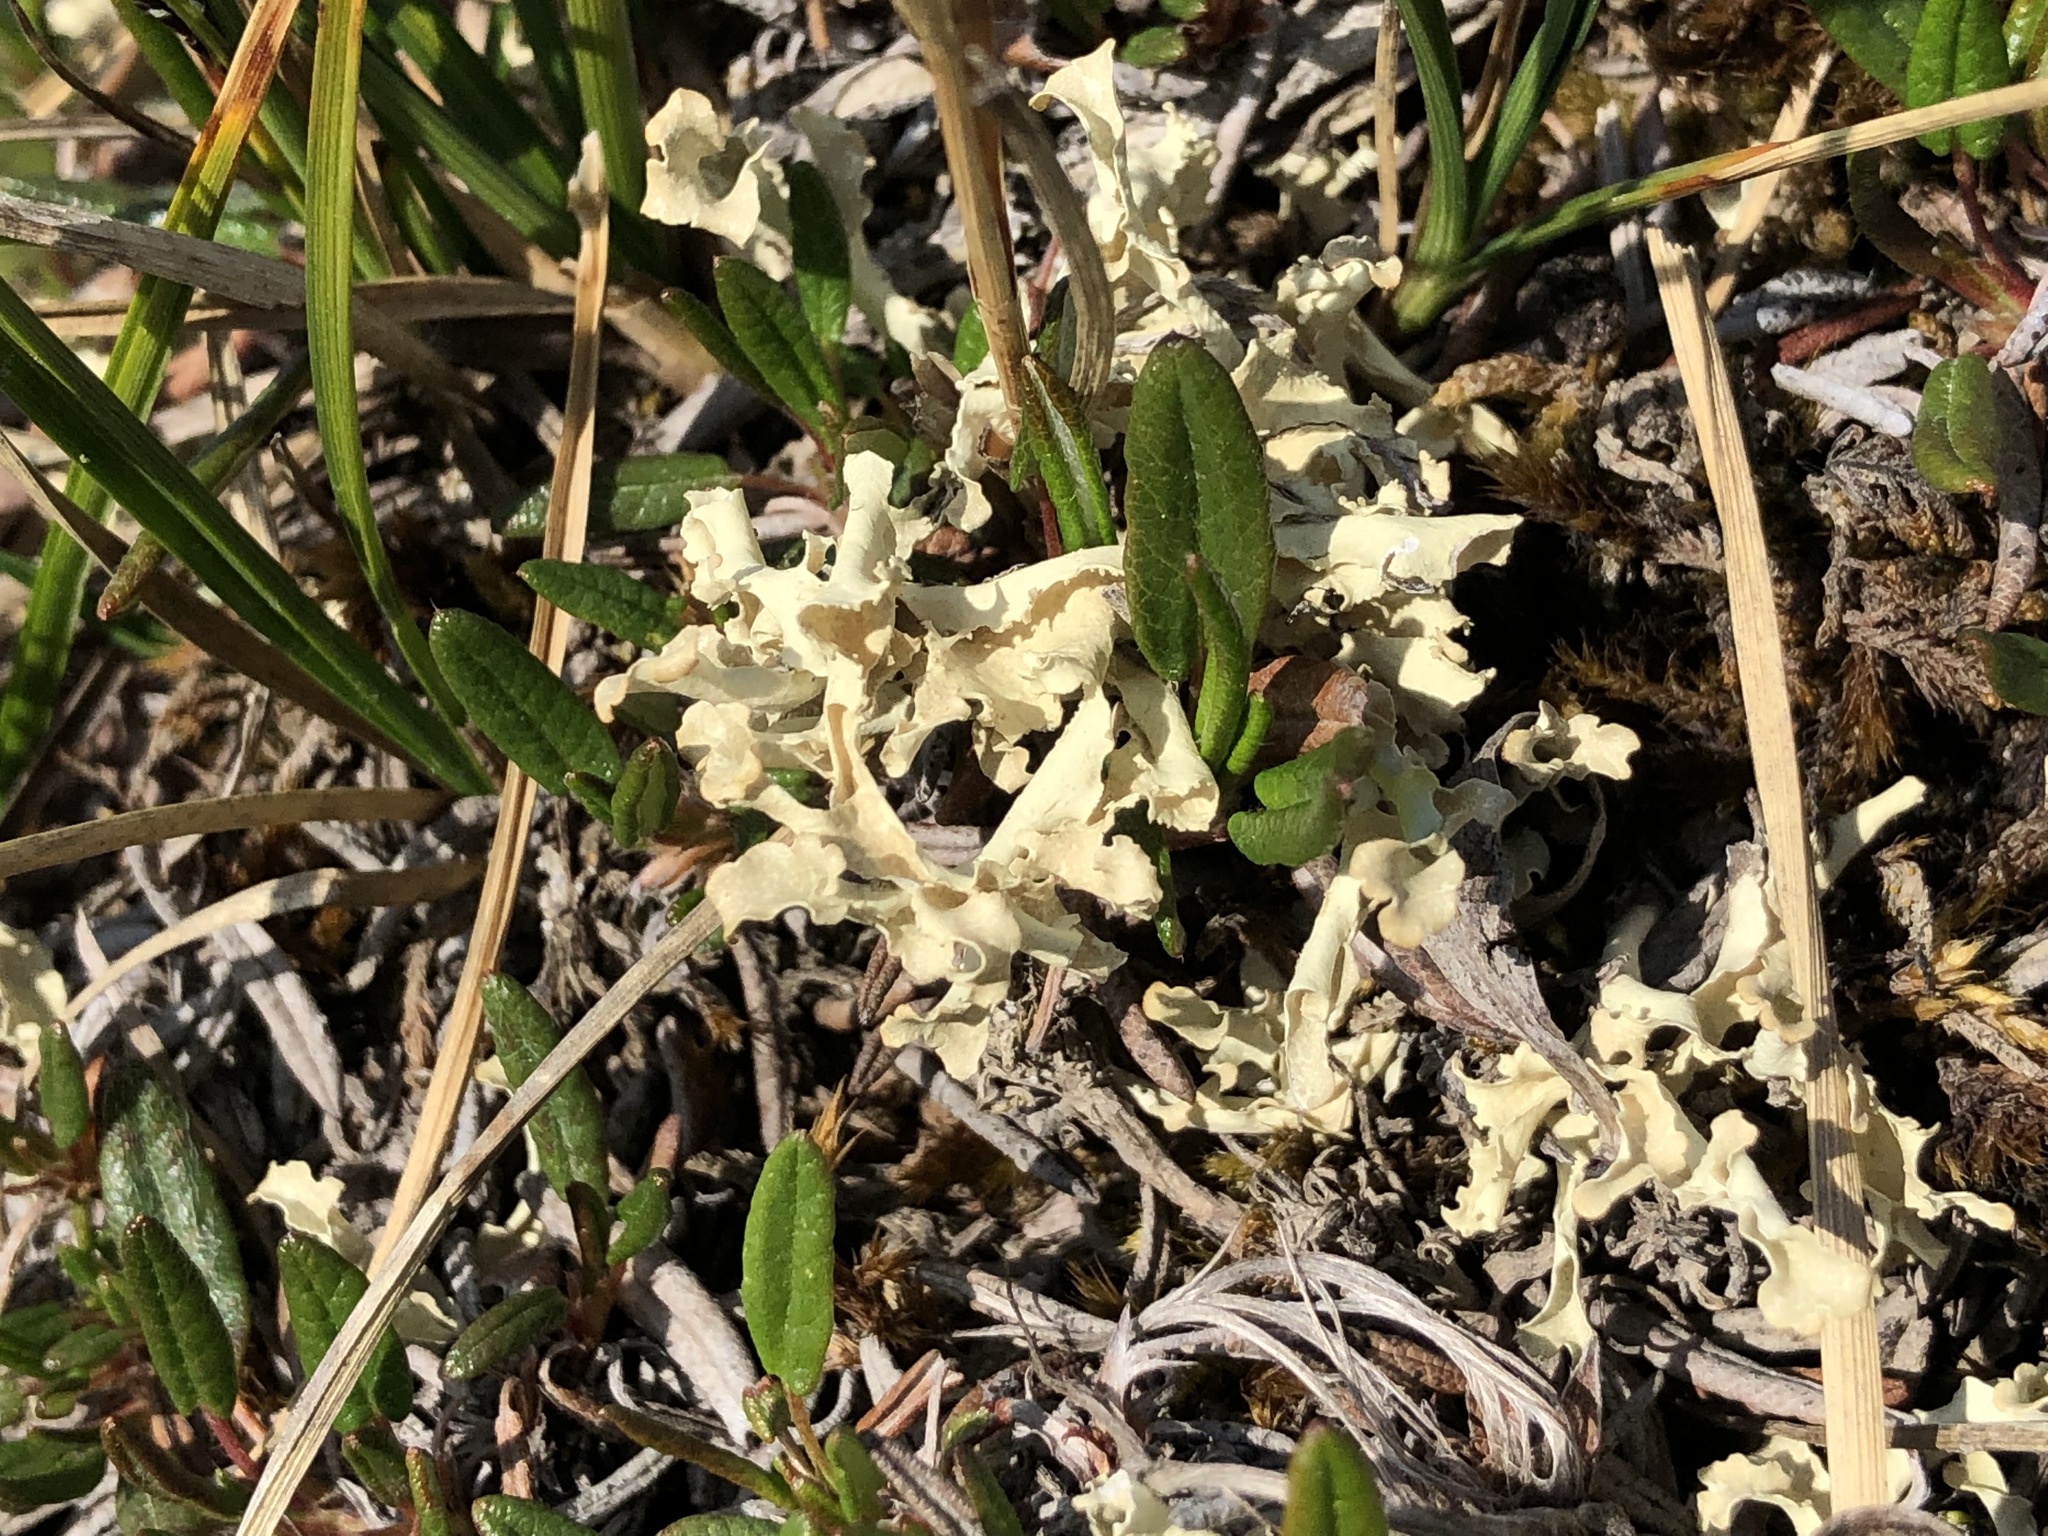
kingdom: Fungi
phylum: Ascomycota
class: Lecanoromycetes
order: Lecanorales
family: Parmeliaceae
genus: Nephromopsis
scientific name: Nephromopsis cucullata
